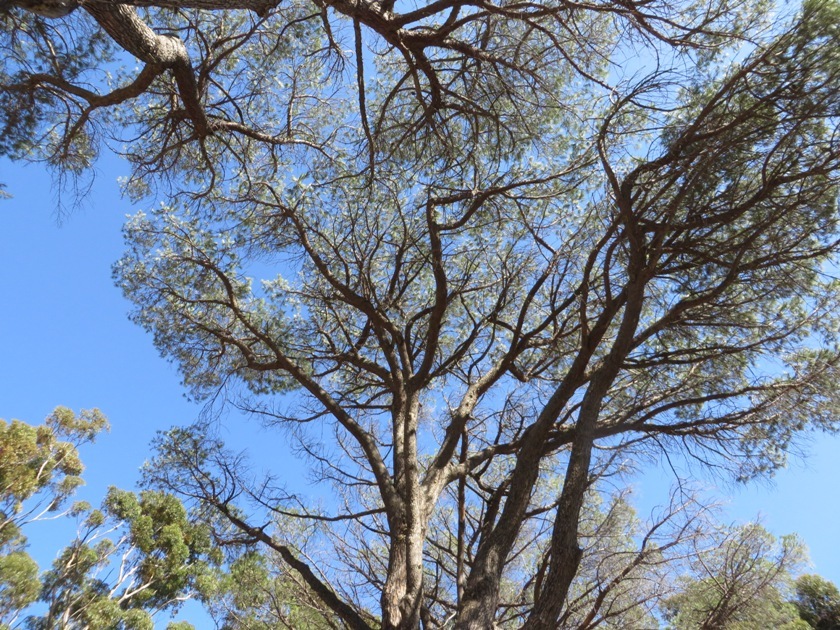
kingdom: Plantae
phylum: Tracheophyta
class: Pinopsida
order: Pinales
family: Pinaceae
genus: Pinus
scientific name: Pinus pinea
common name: Italian stone pine
